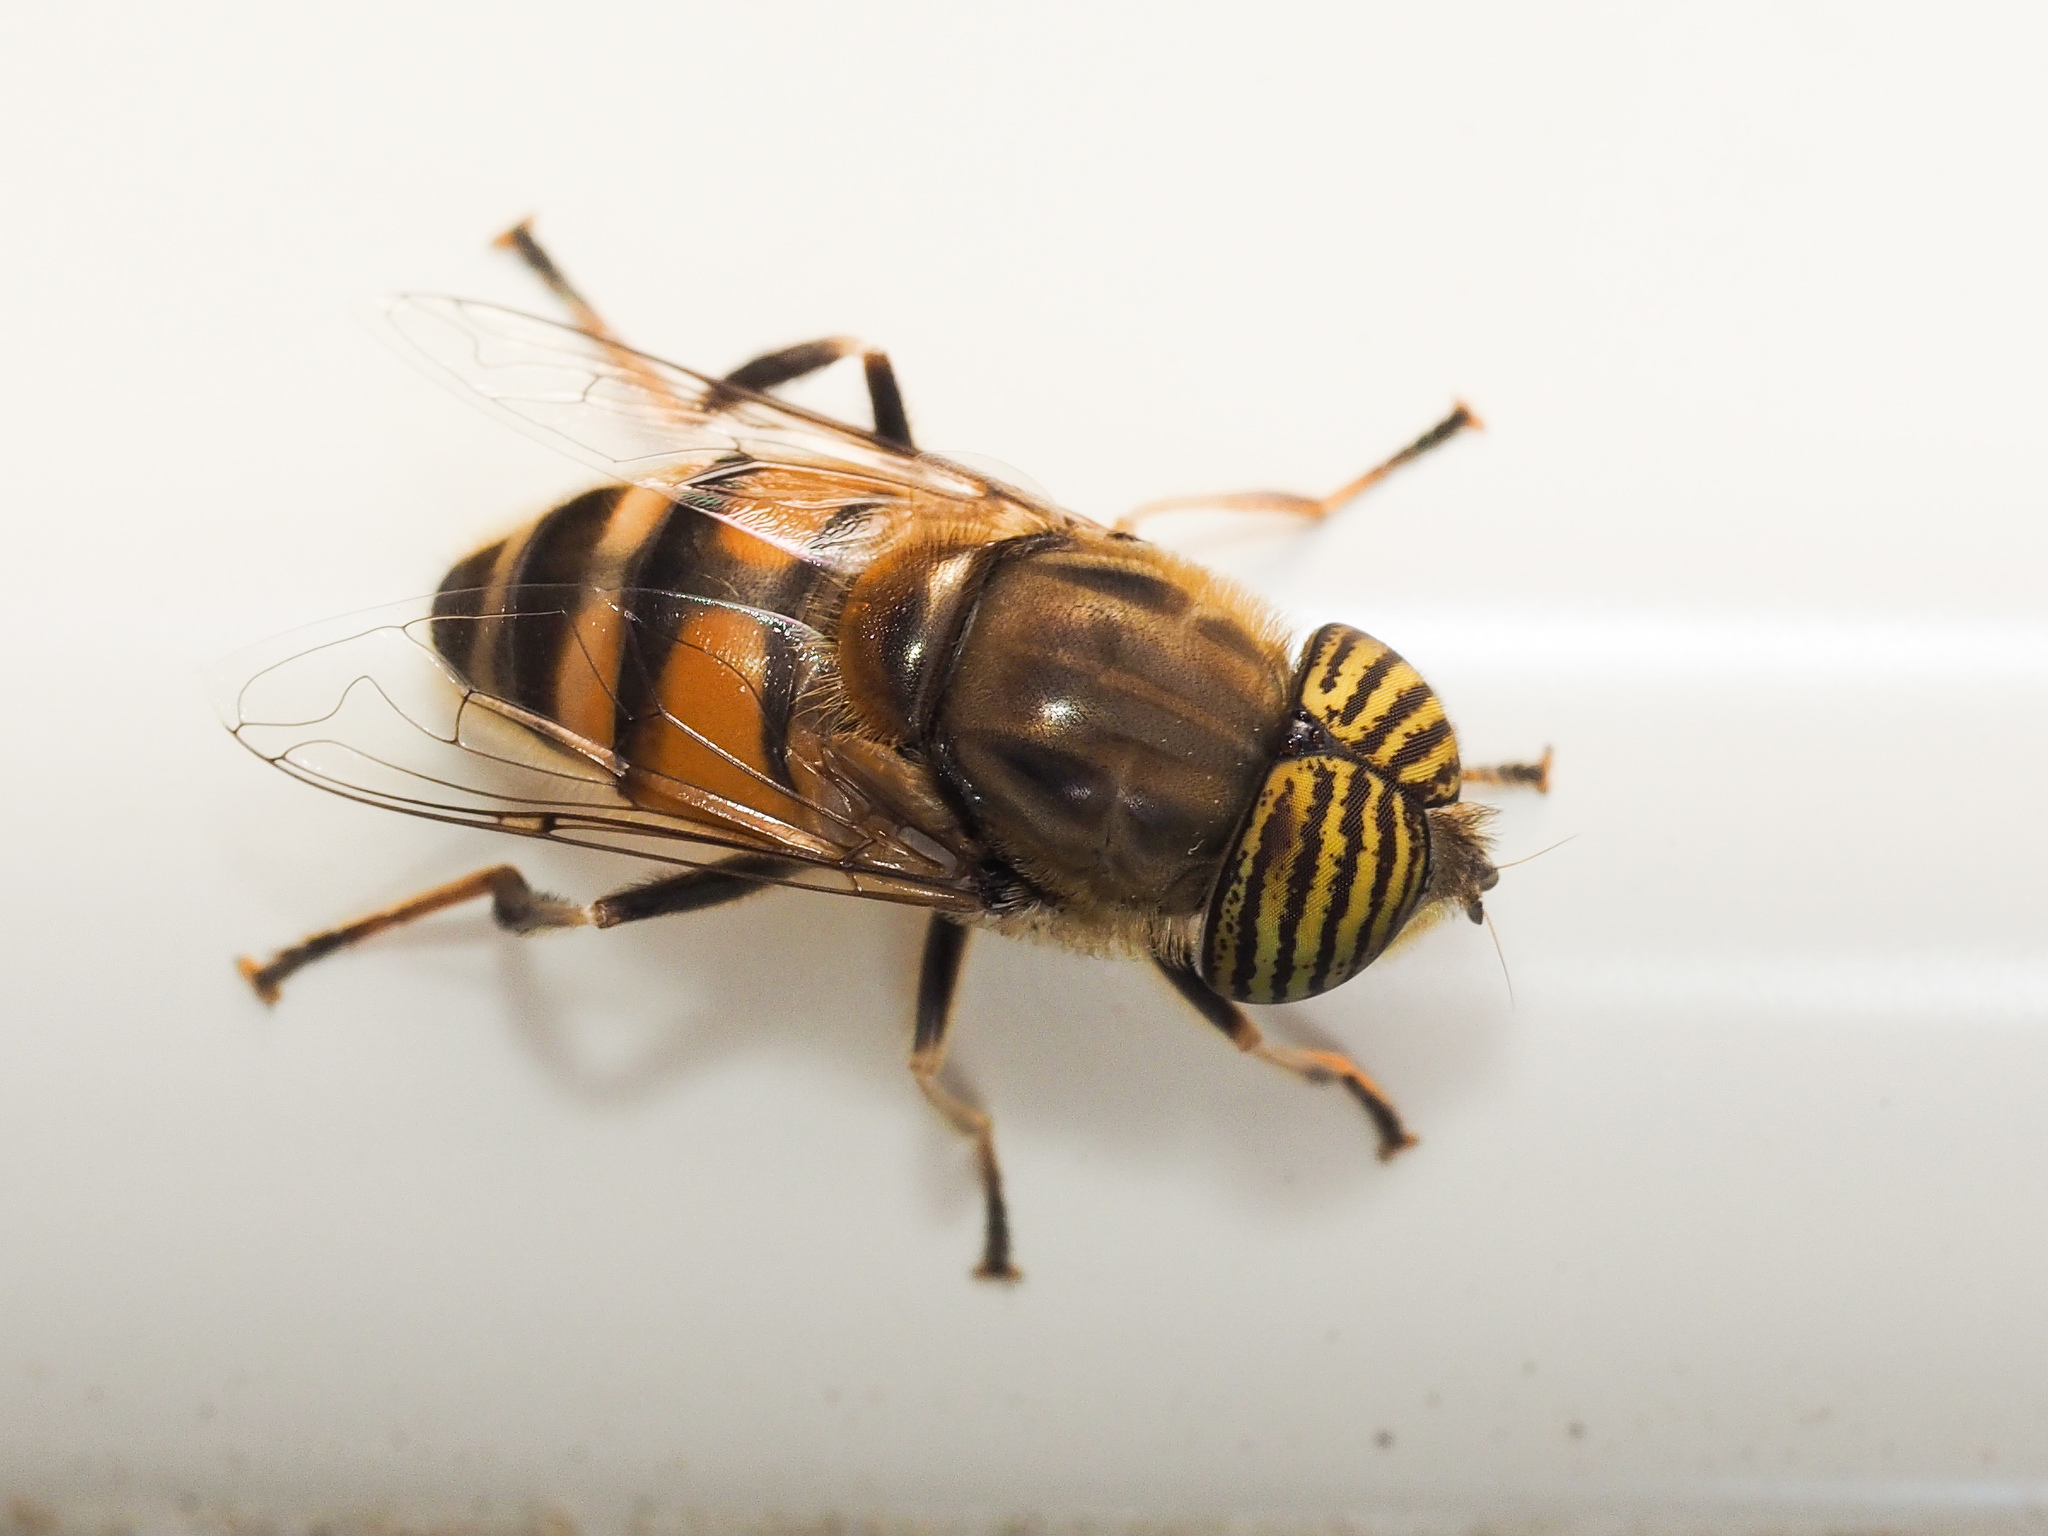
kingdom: Animalia
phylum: Arthropoda
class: Insecta
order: Diptera
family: Syrphidae
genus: Eristalinus
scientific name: Eristalinus taeniops
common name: Syrphid fly
